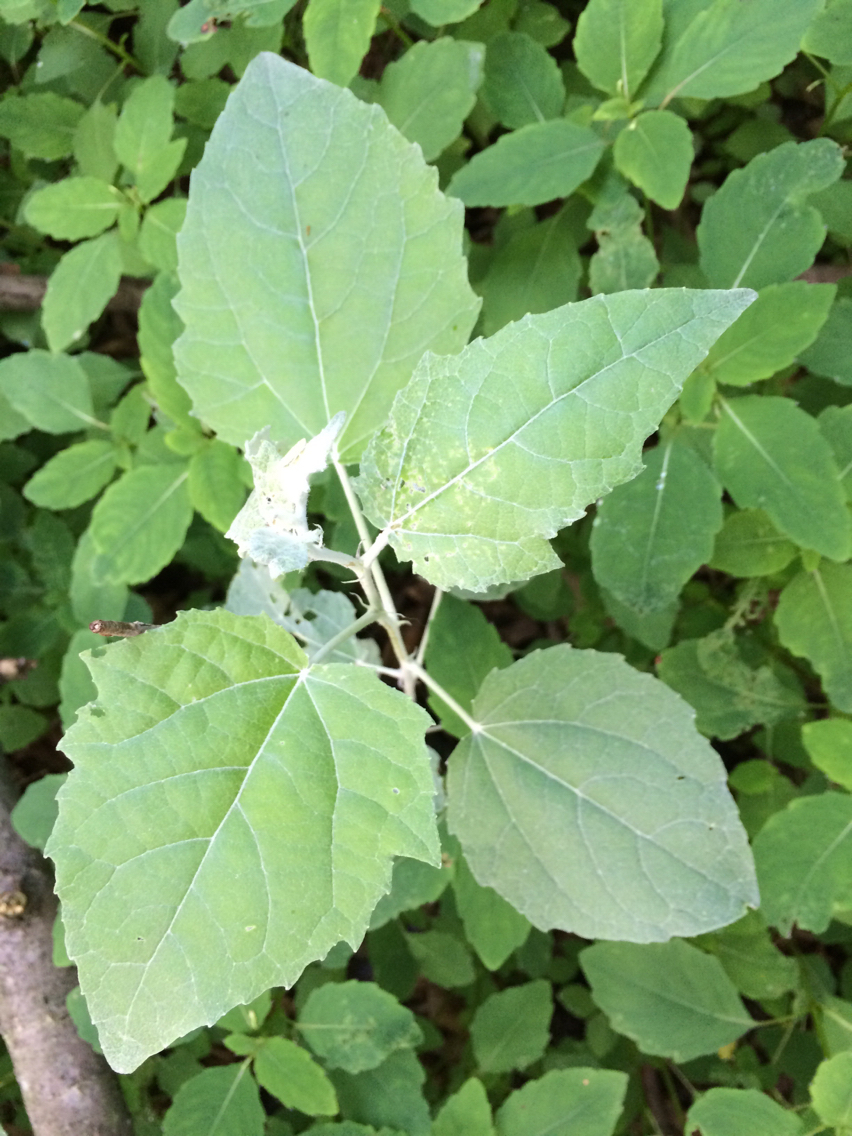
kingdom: Plantae
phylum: Tracheophyta
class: Magnoliopsida
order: Malpighiales
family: Salicaceae
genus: Populus
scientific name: Populus alba
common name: White poplar
